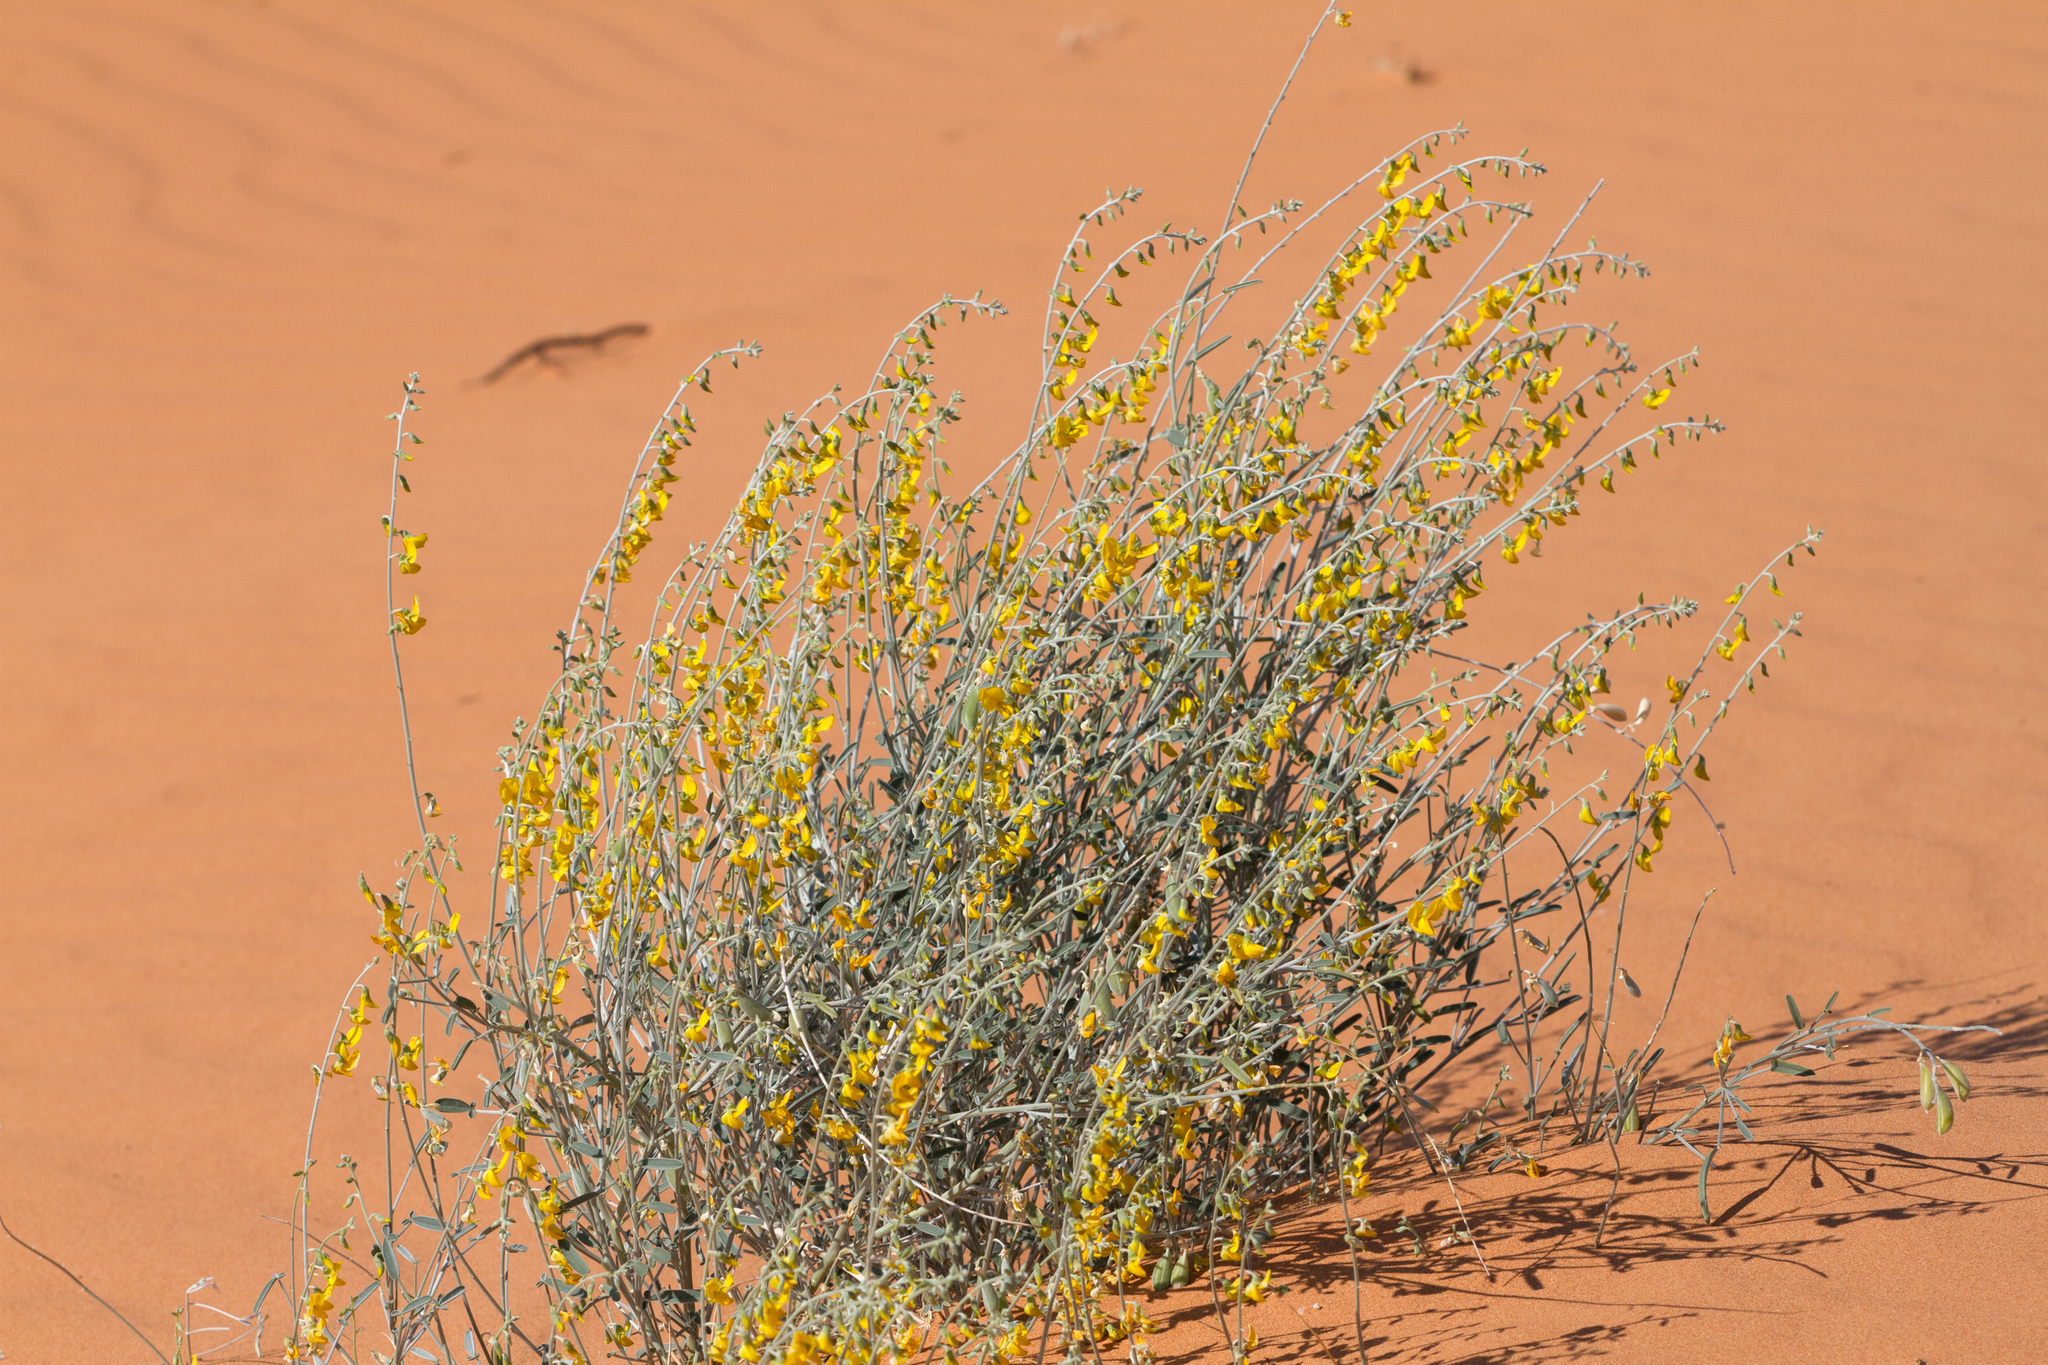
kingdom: Plantae
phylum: Tracheophyta
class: Magnoliopsida
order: Fabales
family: Fabaceae
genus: Crotalaria
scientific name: Crotalaria eremaea
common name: Bluebush pea
